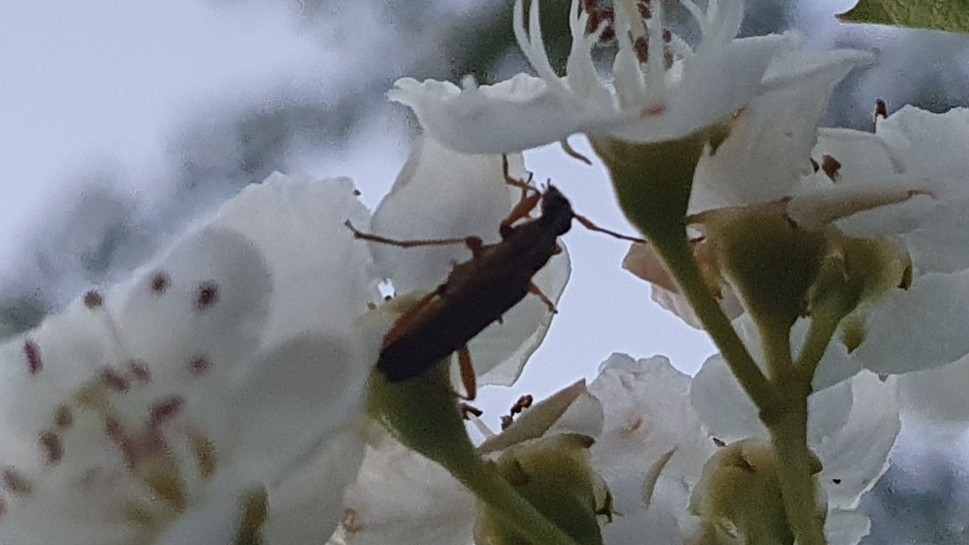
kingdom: Animalia
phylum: Arthropoda
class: Insecta
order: Coleoptera
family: Cerambycidae
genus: Grammoptera
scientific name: Grammoptera ruficornis
